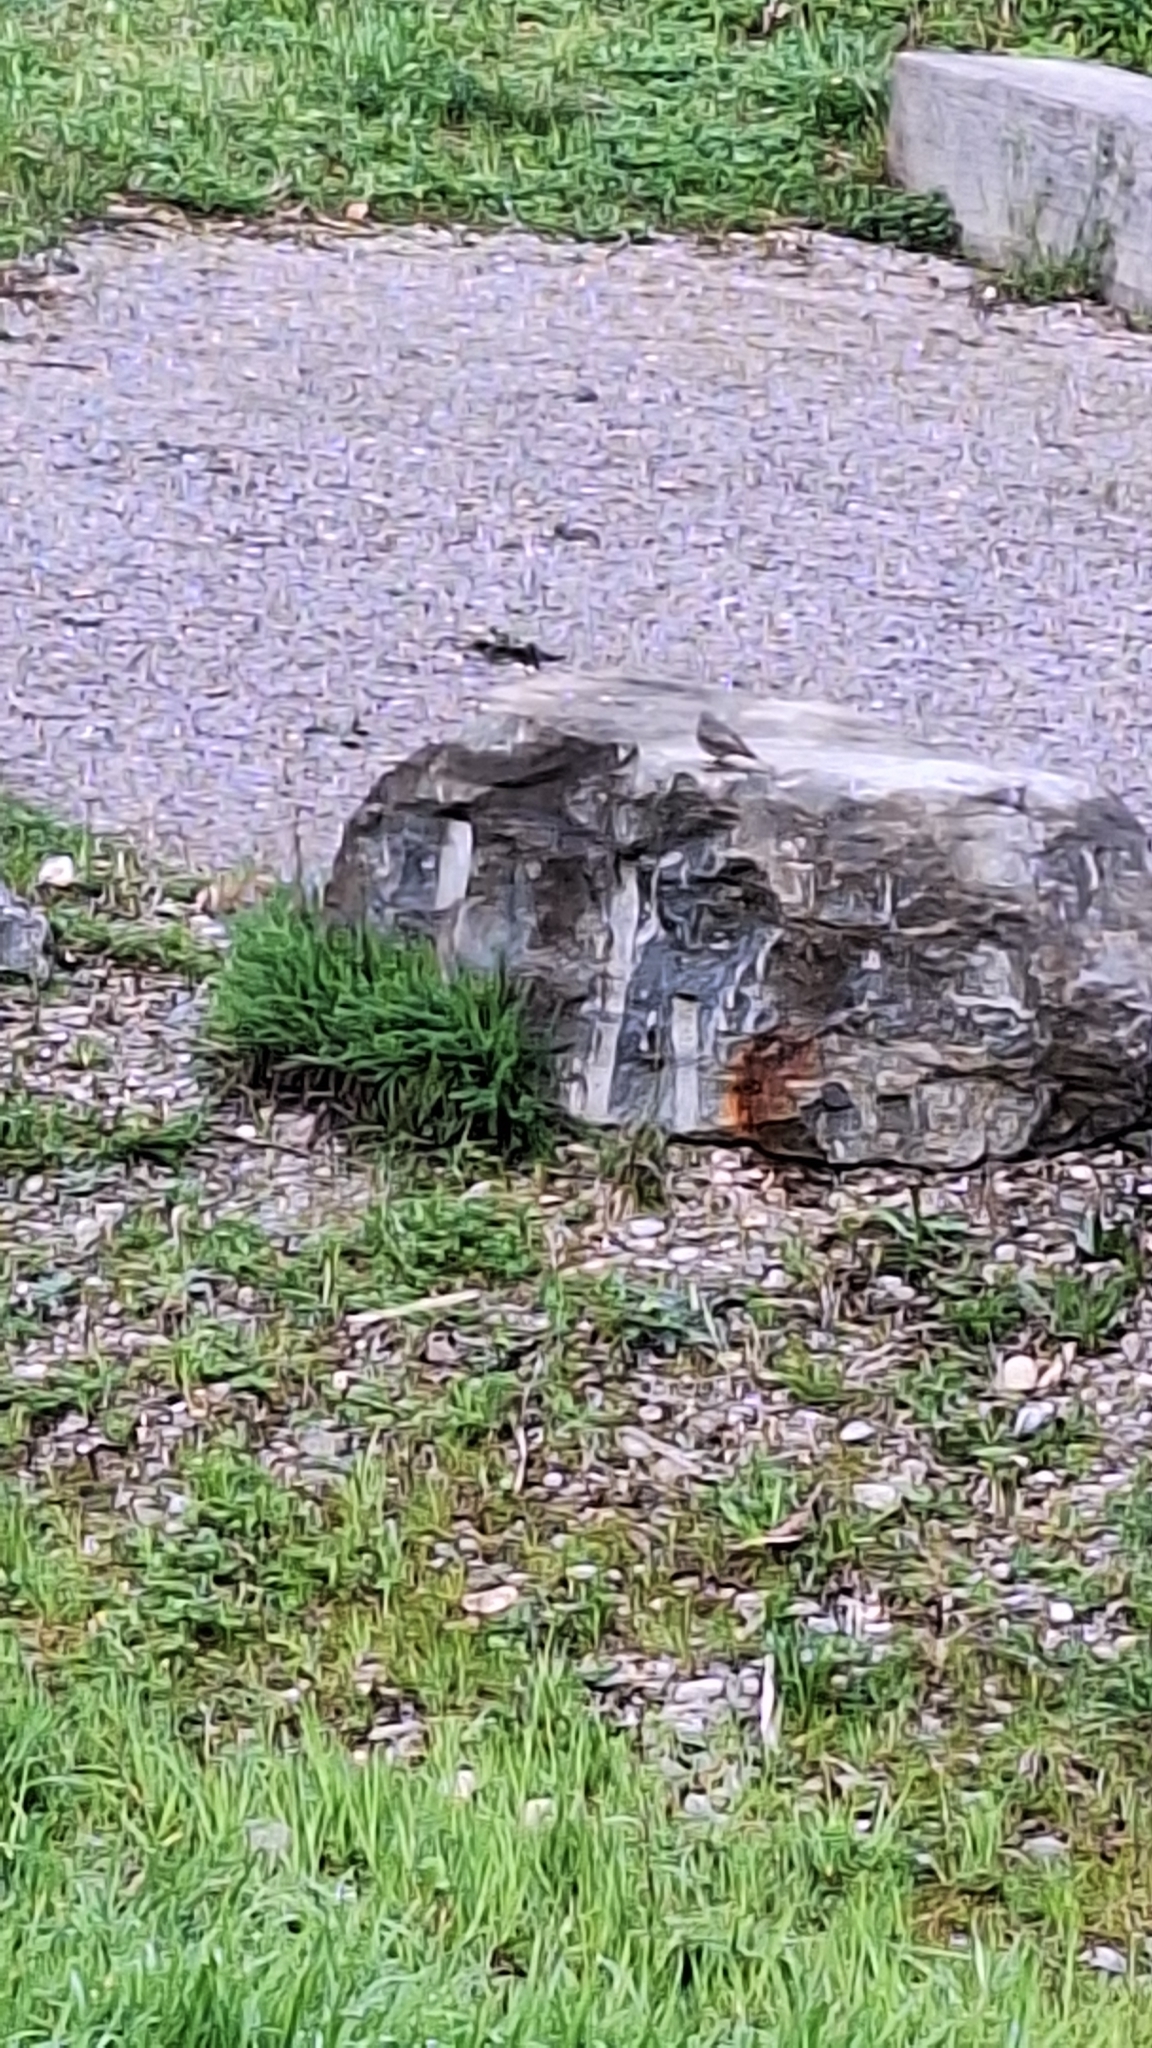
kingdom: Animalia
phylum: Chordata
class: Aves
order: Passeriformes
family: Muscicapidae
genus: Phoenicurus
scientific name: Phoenicurus ochruros
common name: Black redstart
